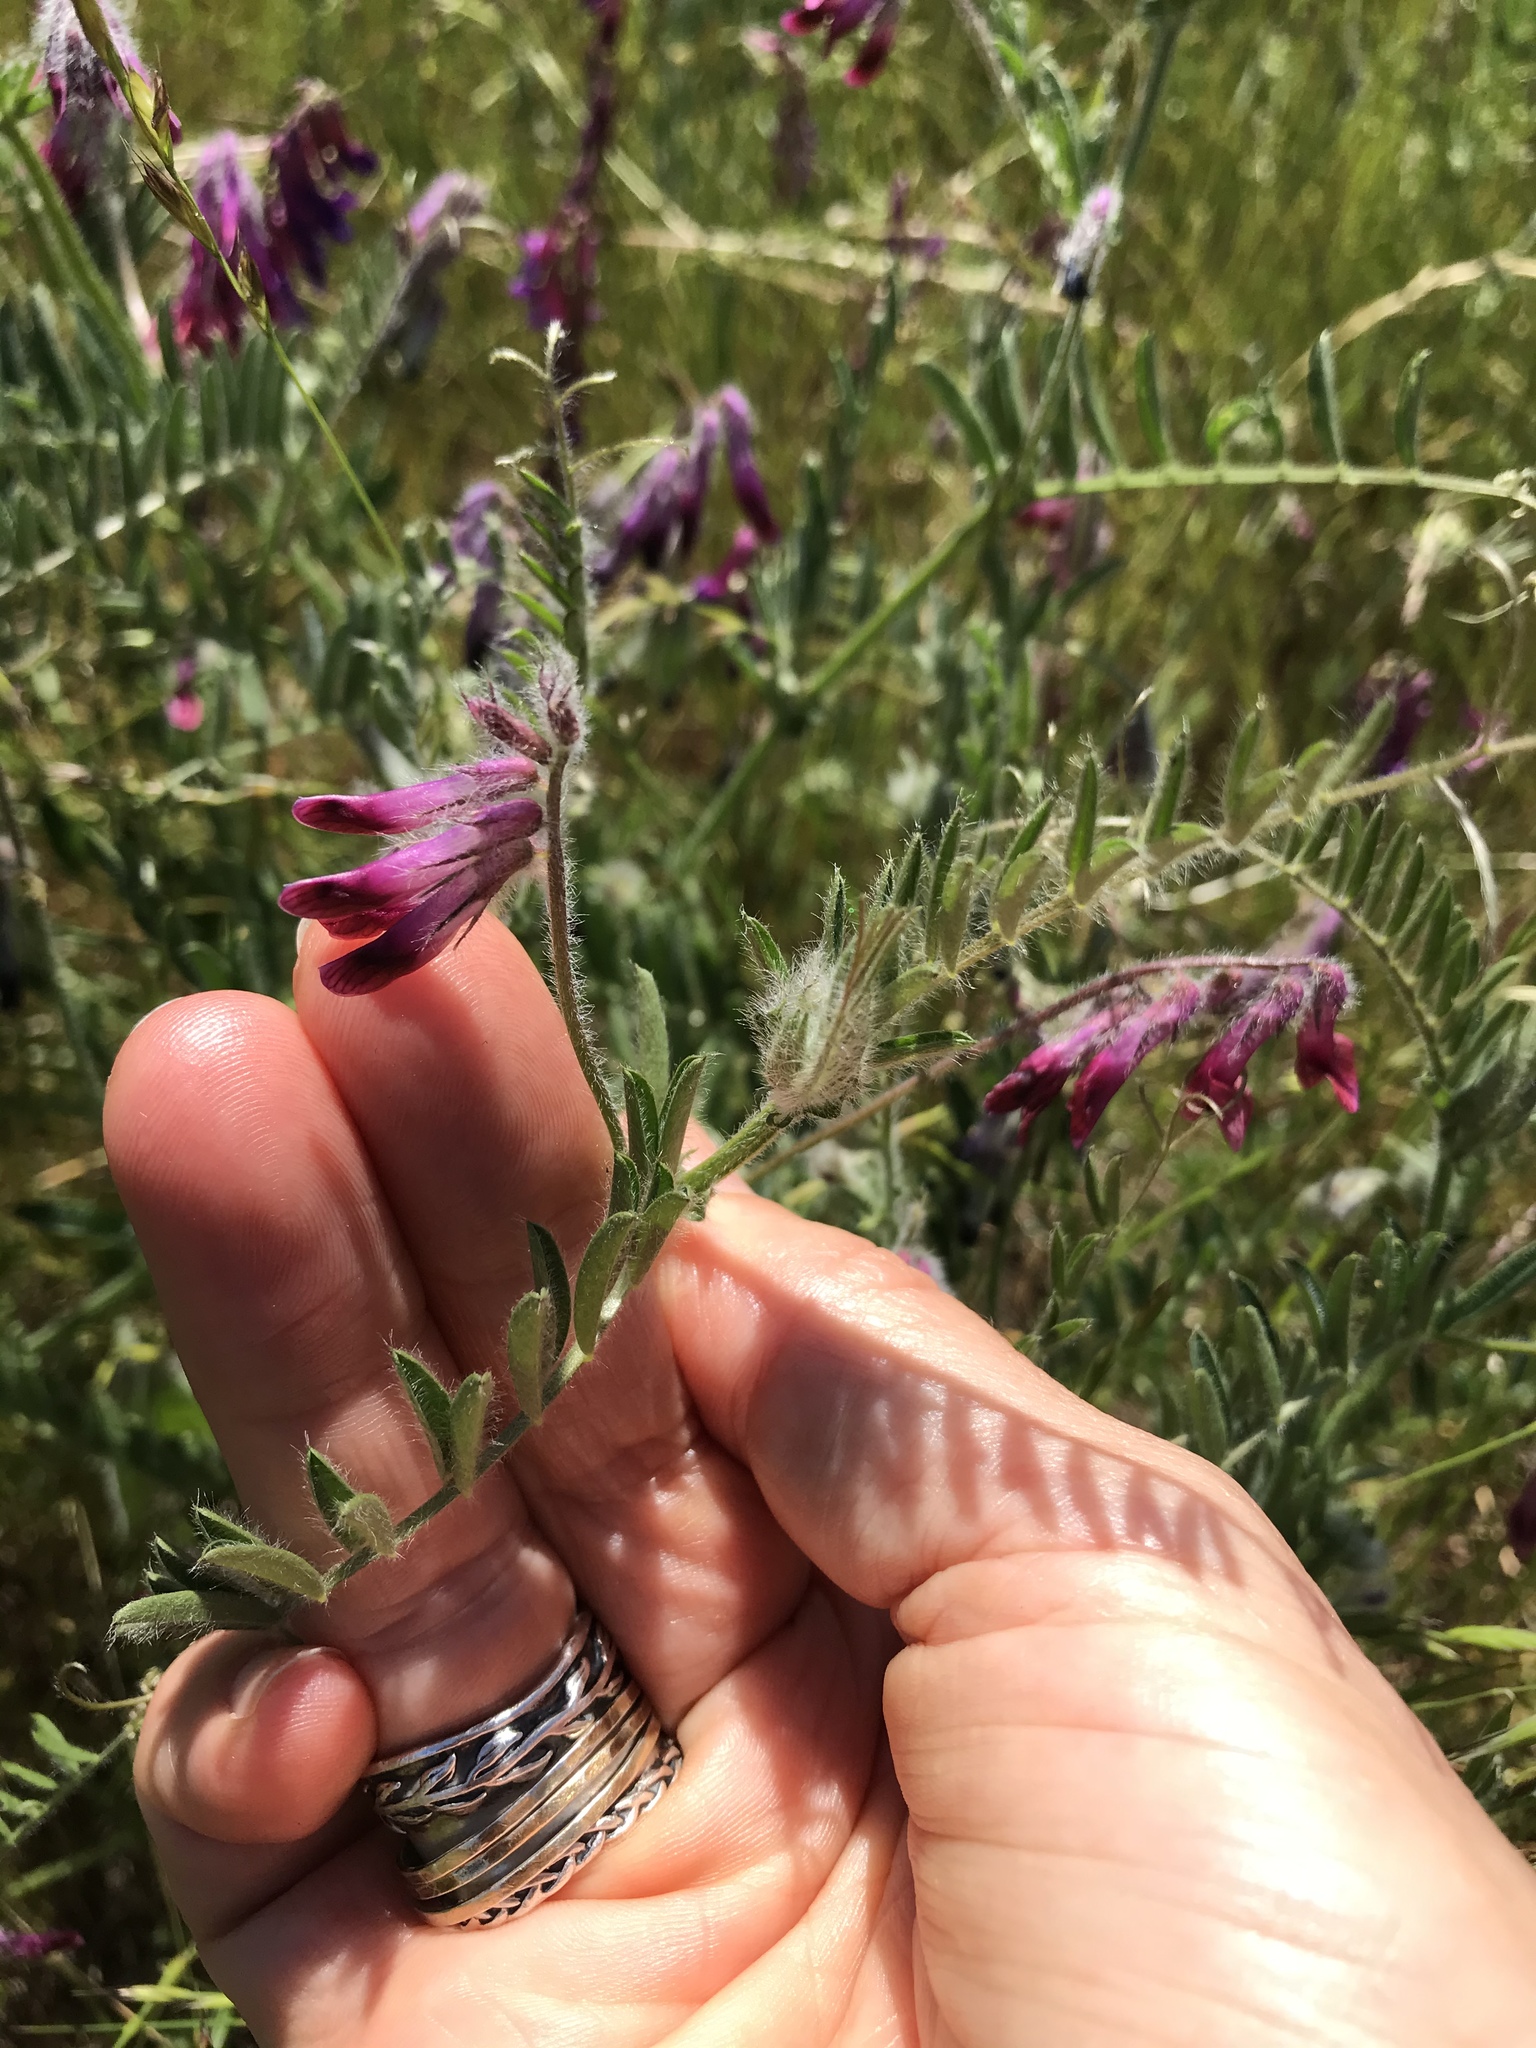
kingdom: Plantae
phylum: Tracheophyta
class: Magnoliopsida
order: Fabales
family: Fabaceae
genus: Vicia
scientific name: Vicia benghalensis
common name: Purple vetch
